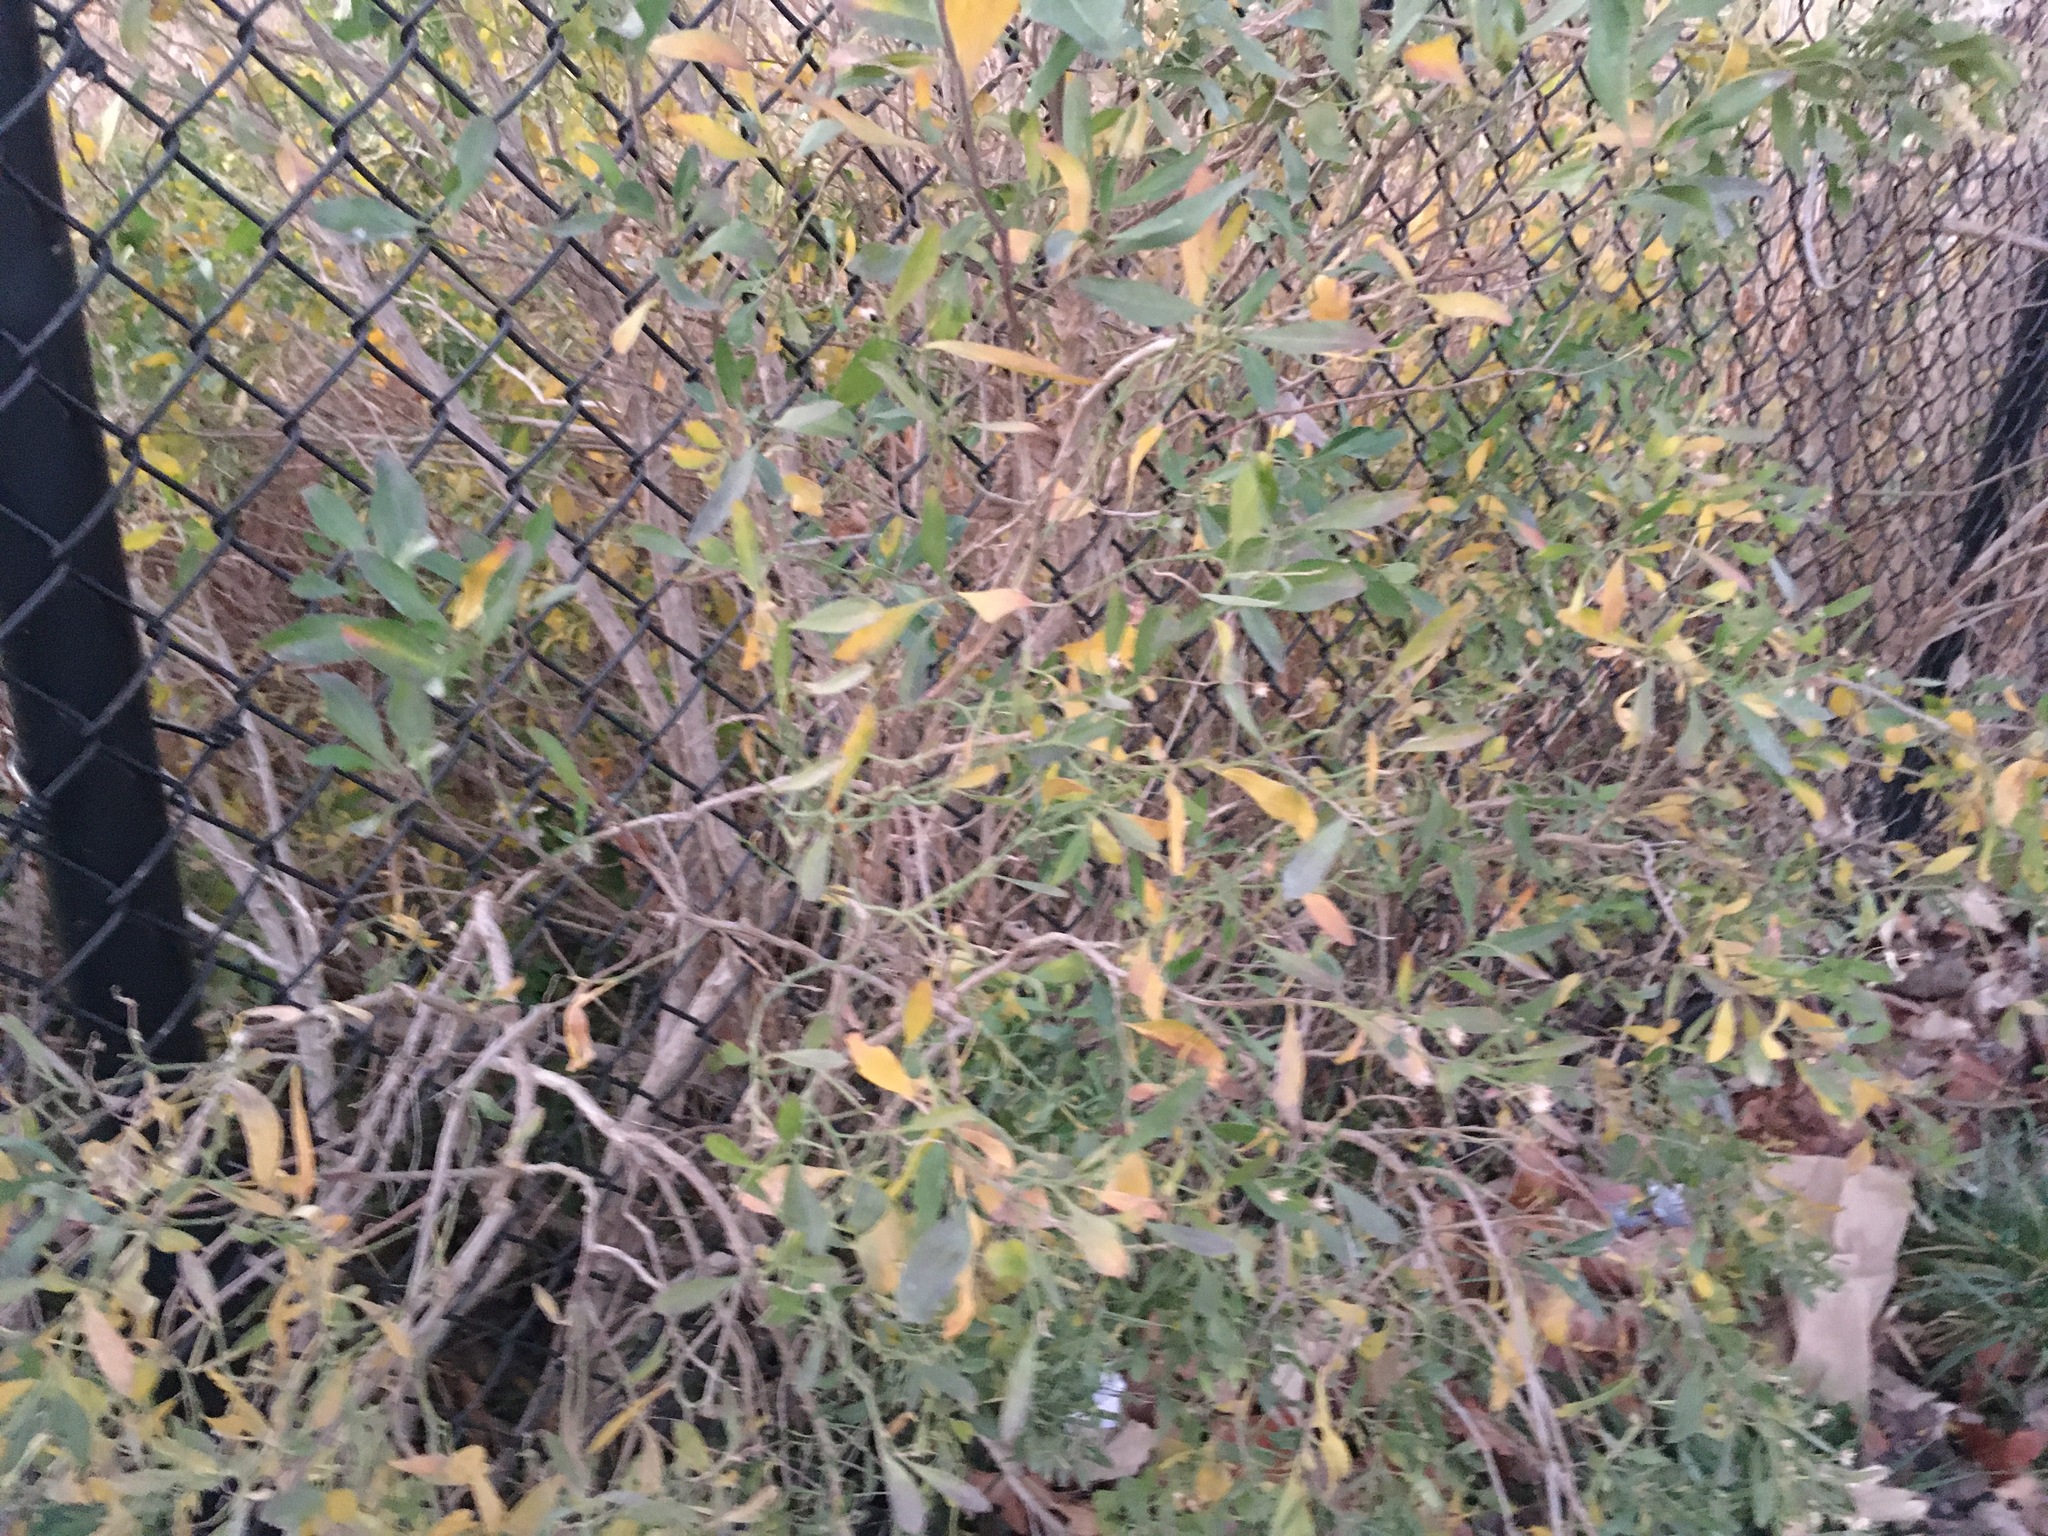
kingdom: Plantae
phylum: Tracheophyta
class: Magnoliopsida
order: Asterales
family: Asteraceae
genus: Baccharis
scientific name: Baccharis halimifolia
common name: Eastern baccharis
